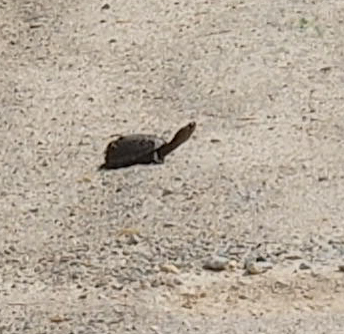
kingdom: Animalia
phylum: Chordata
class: Testudines
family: Kinosternidae
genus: Kinosternon
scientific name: Kinosternon subrubrum
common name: Eastern mud turtle
